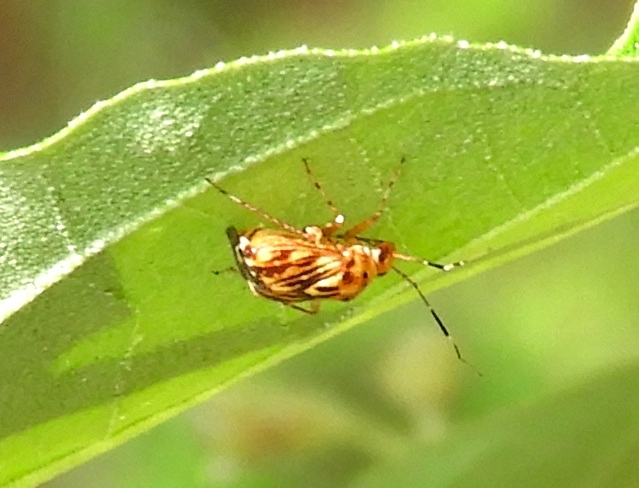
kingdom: Animalia
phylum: Arthropoda
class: Insecta
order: Hemiptera
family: Miridae
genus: Taedia
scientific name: Taedia
